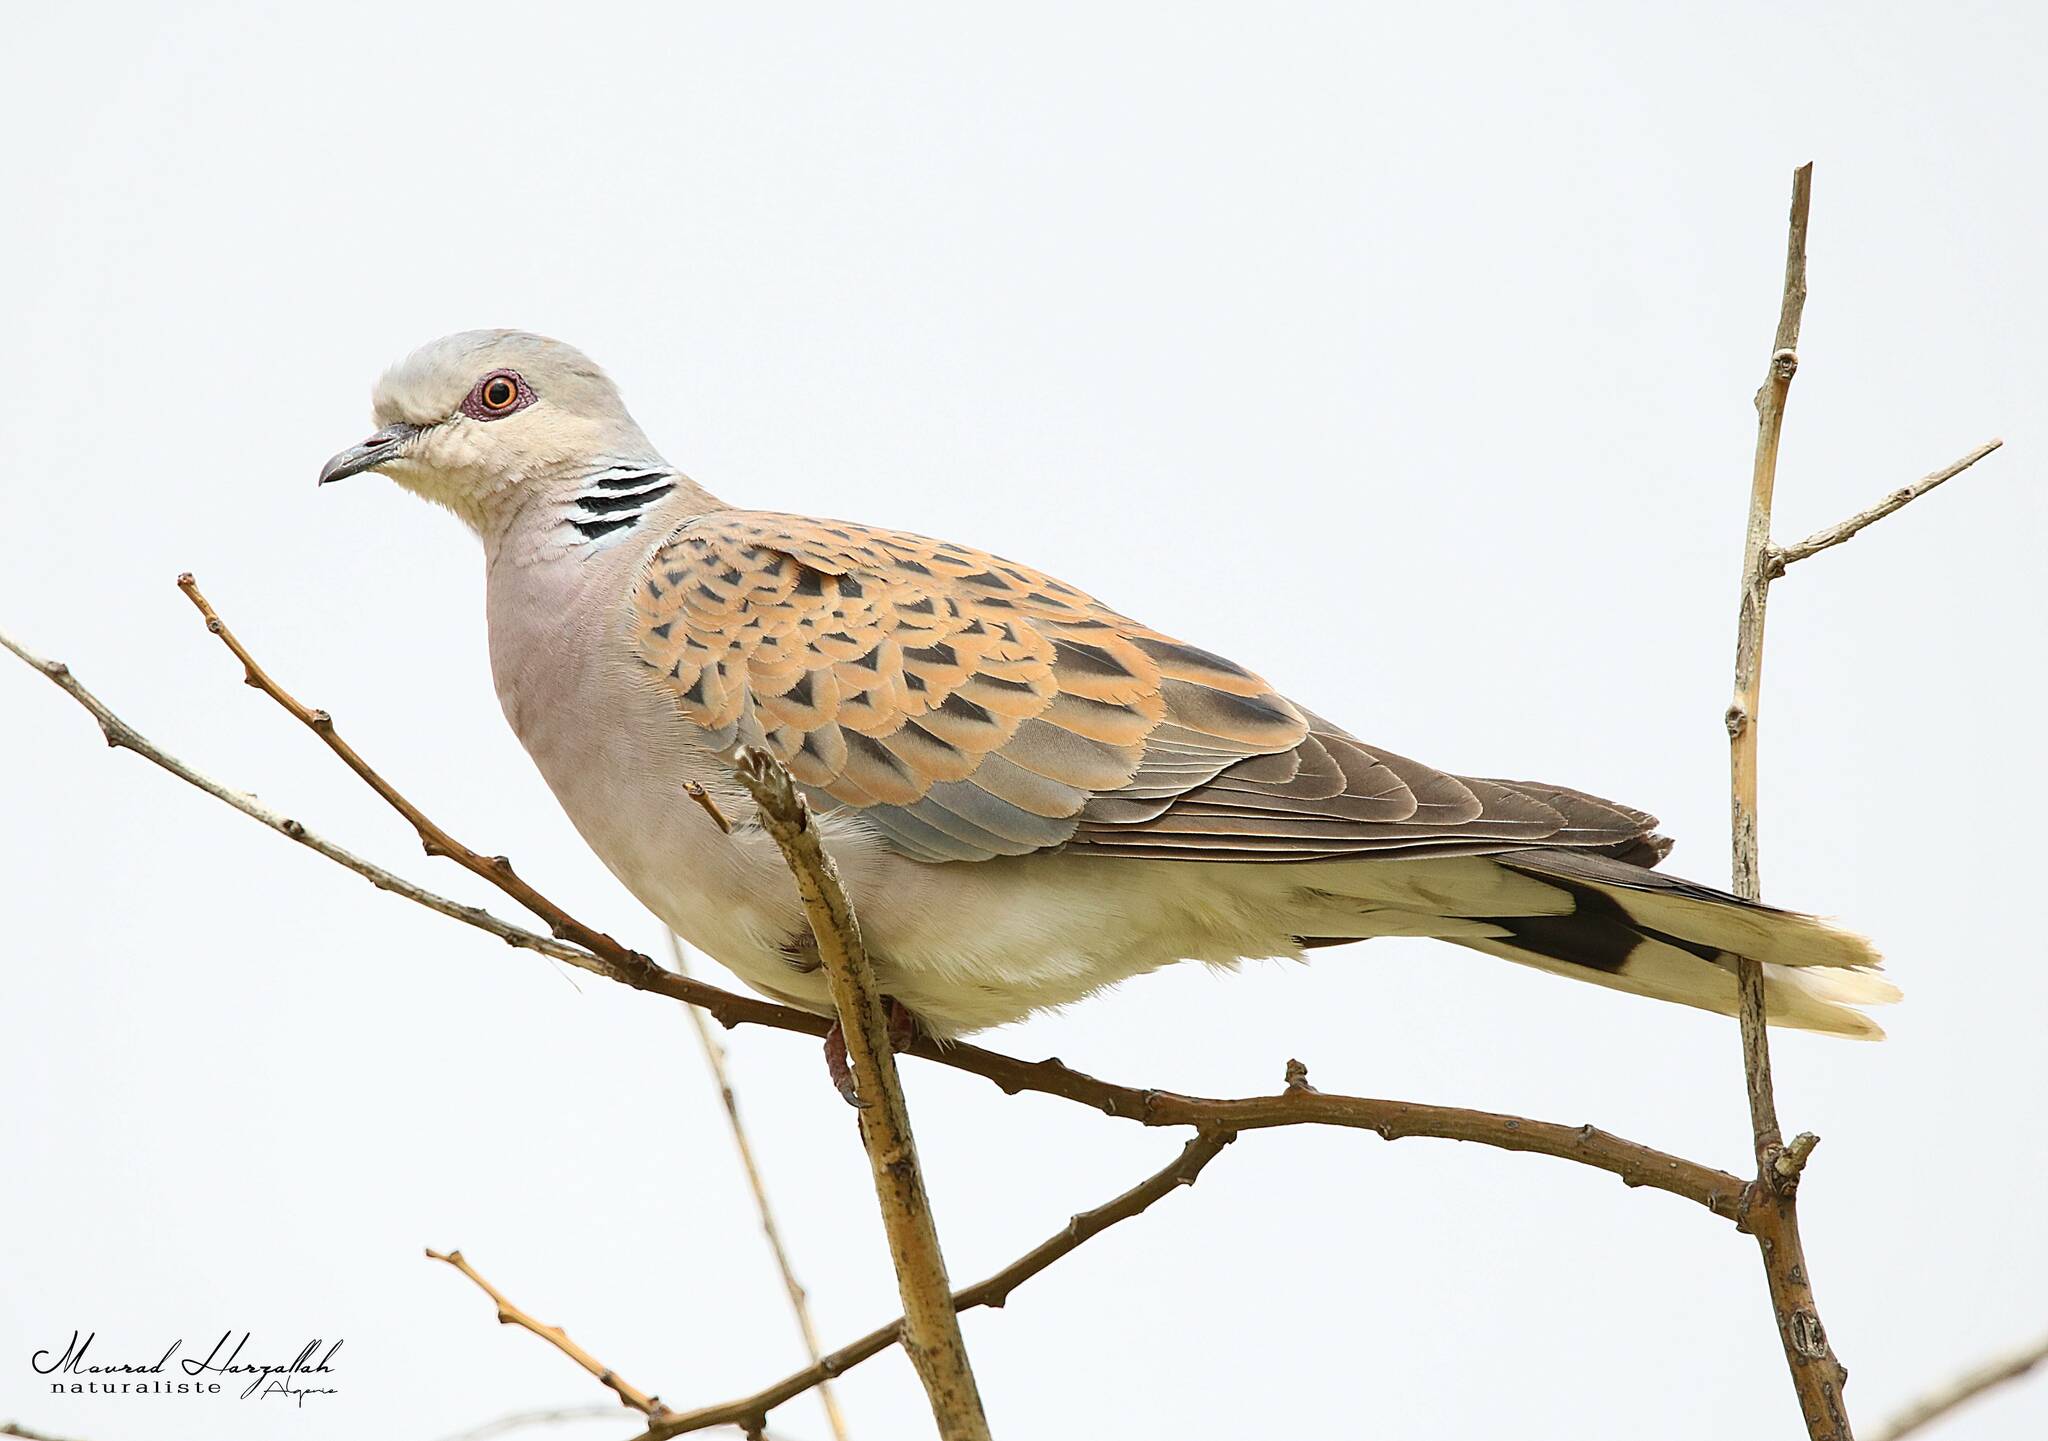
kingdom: Animalia
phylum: Chordata
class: Aves
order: Columbiformes
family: Columbidae
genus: Streptopelia
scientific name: Streptopelia turtur
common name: European turtle dove
